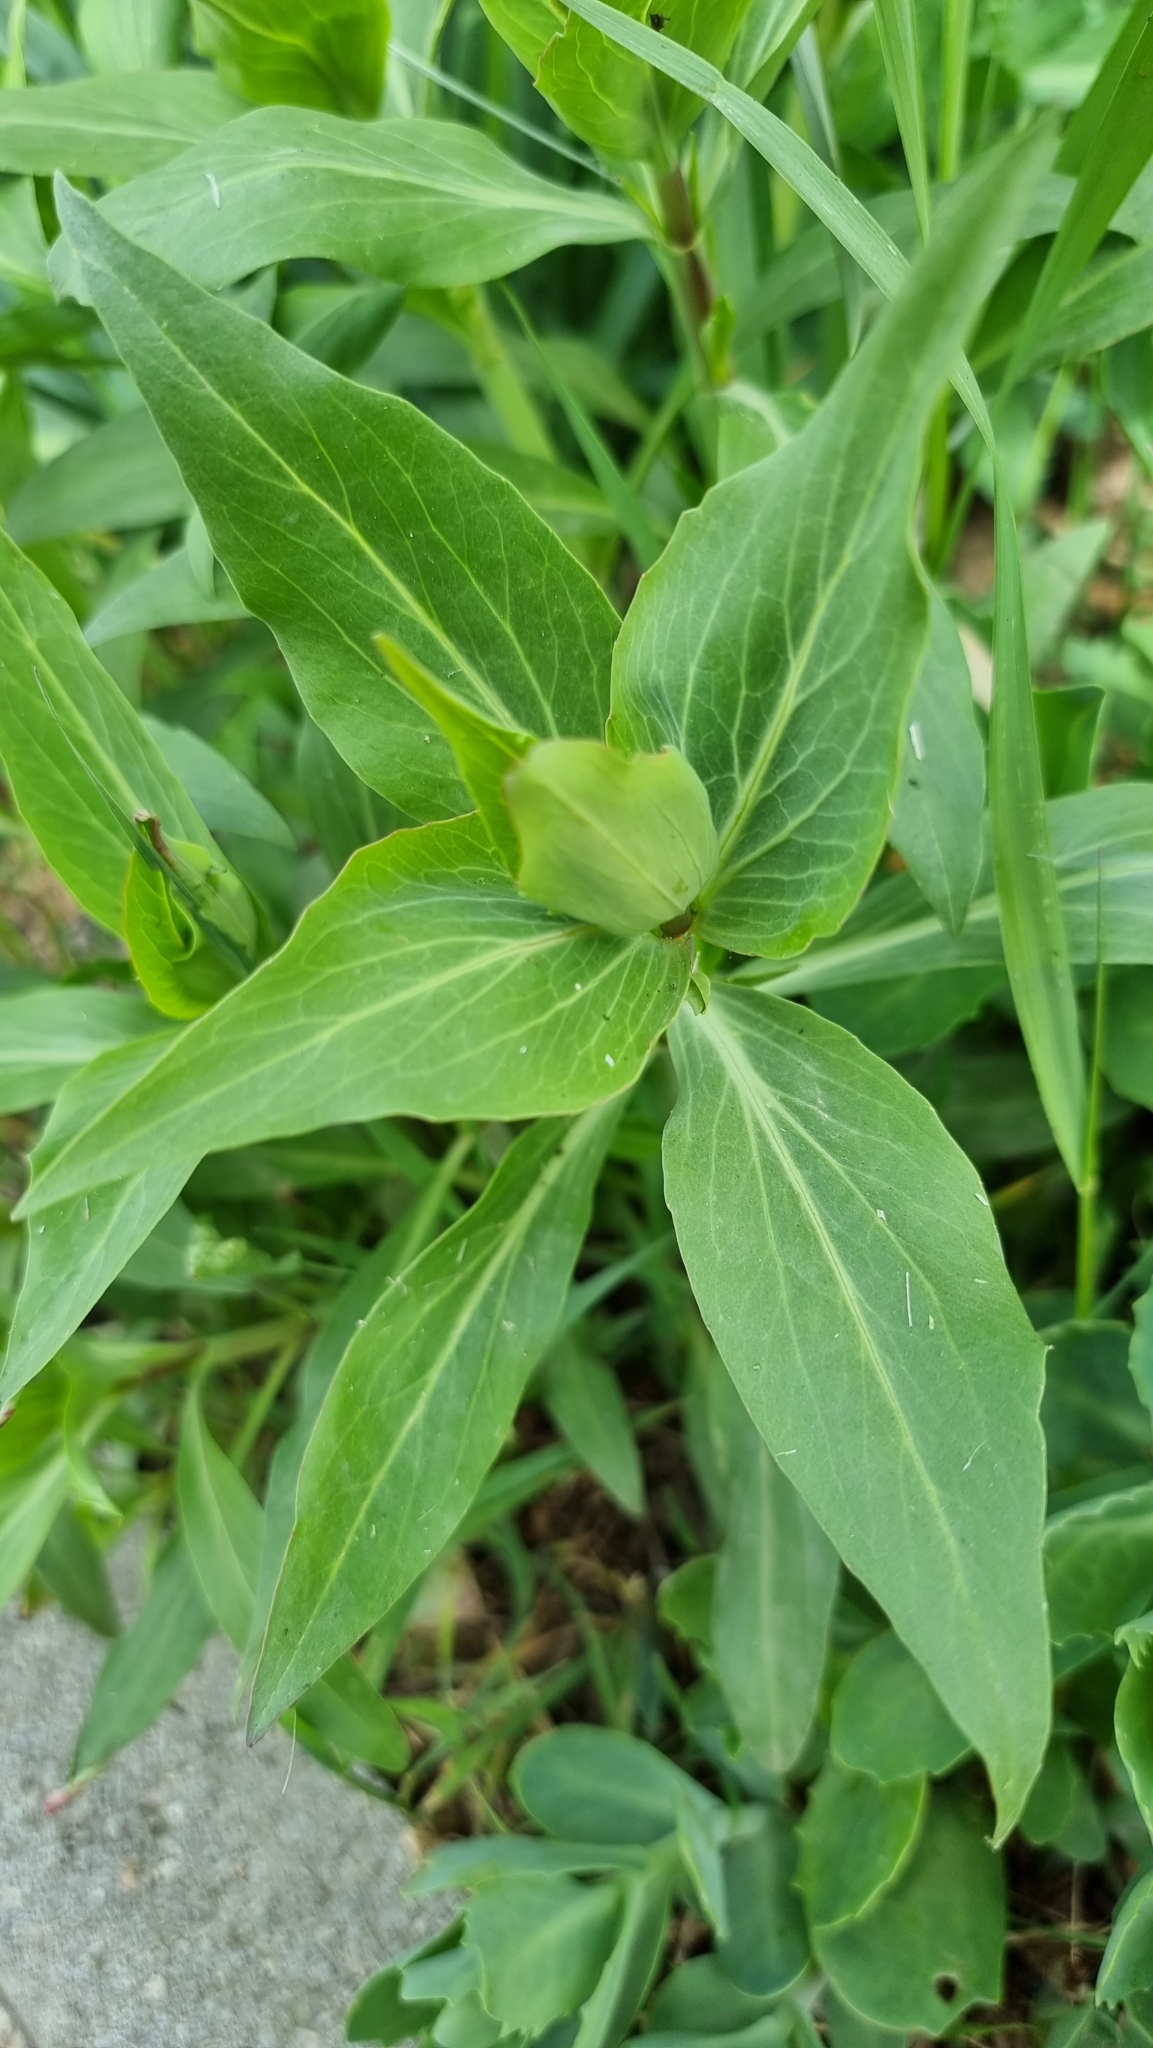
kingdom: Plantae
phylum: Tracheophyta
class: Magnoliopsida
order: Dipsacales
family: Caprifoliaceae
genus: Centranthus
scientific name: Centranthus ruber
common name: Red valerian
